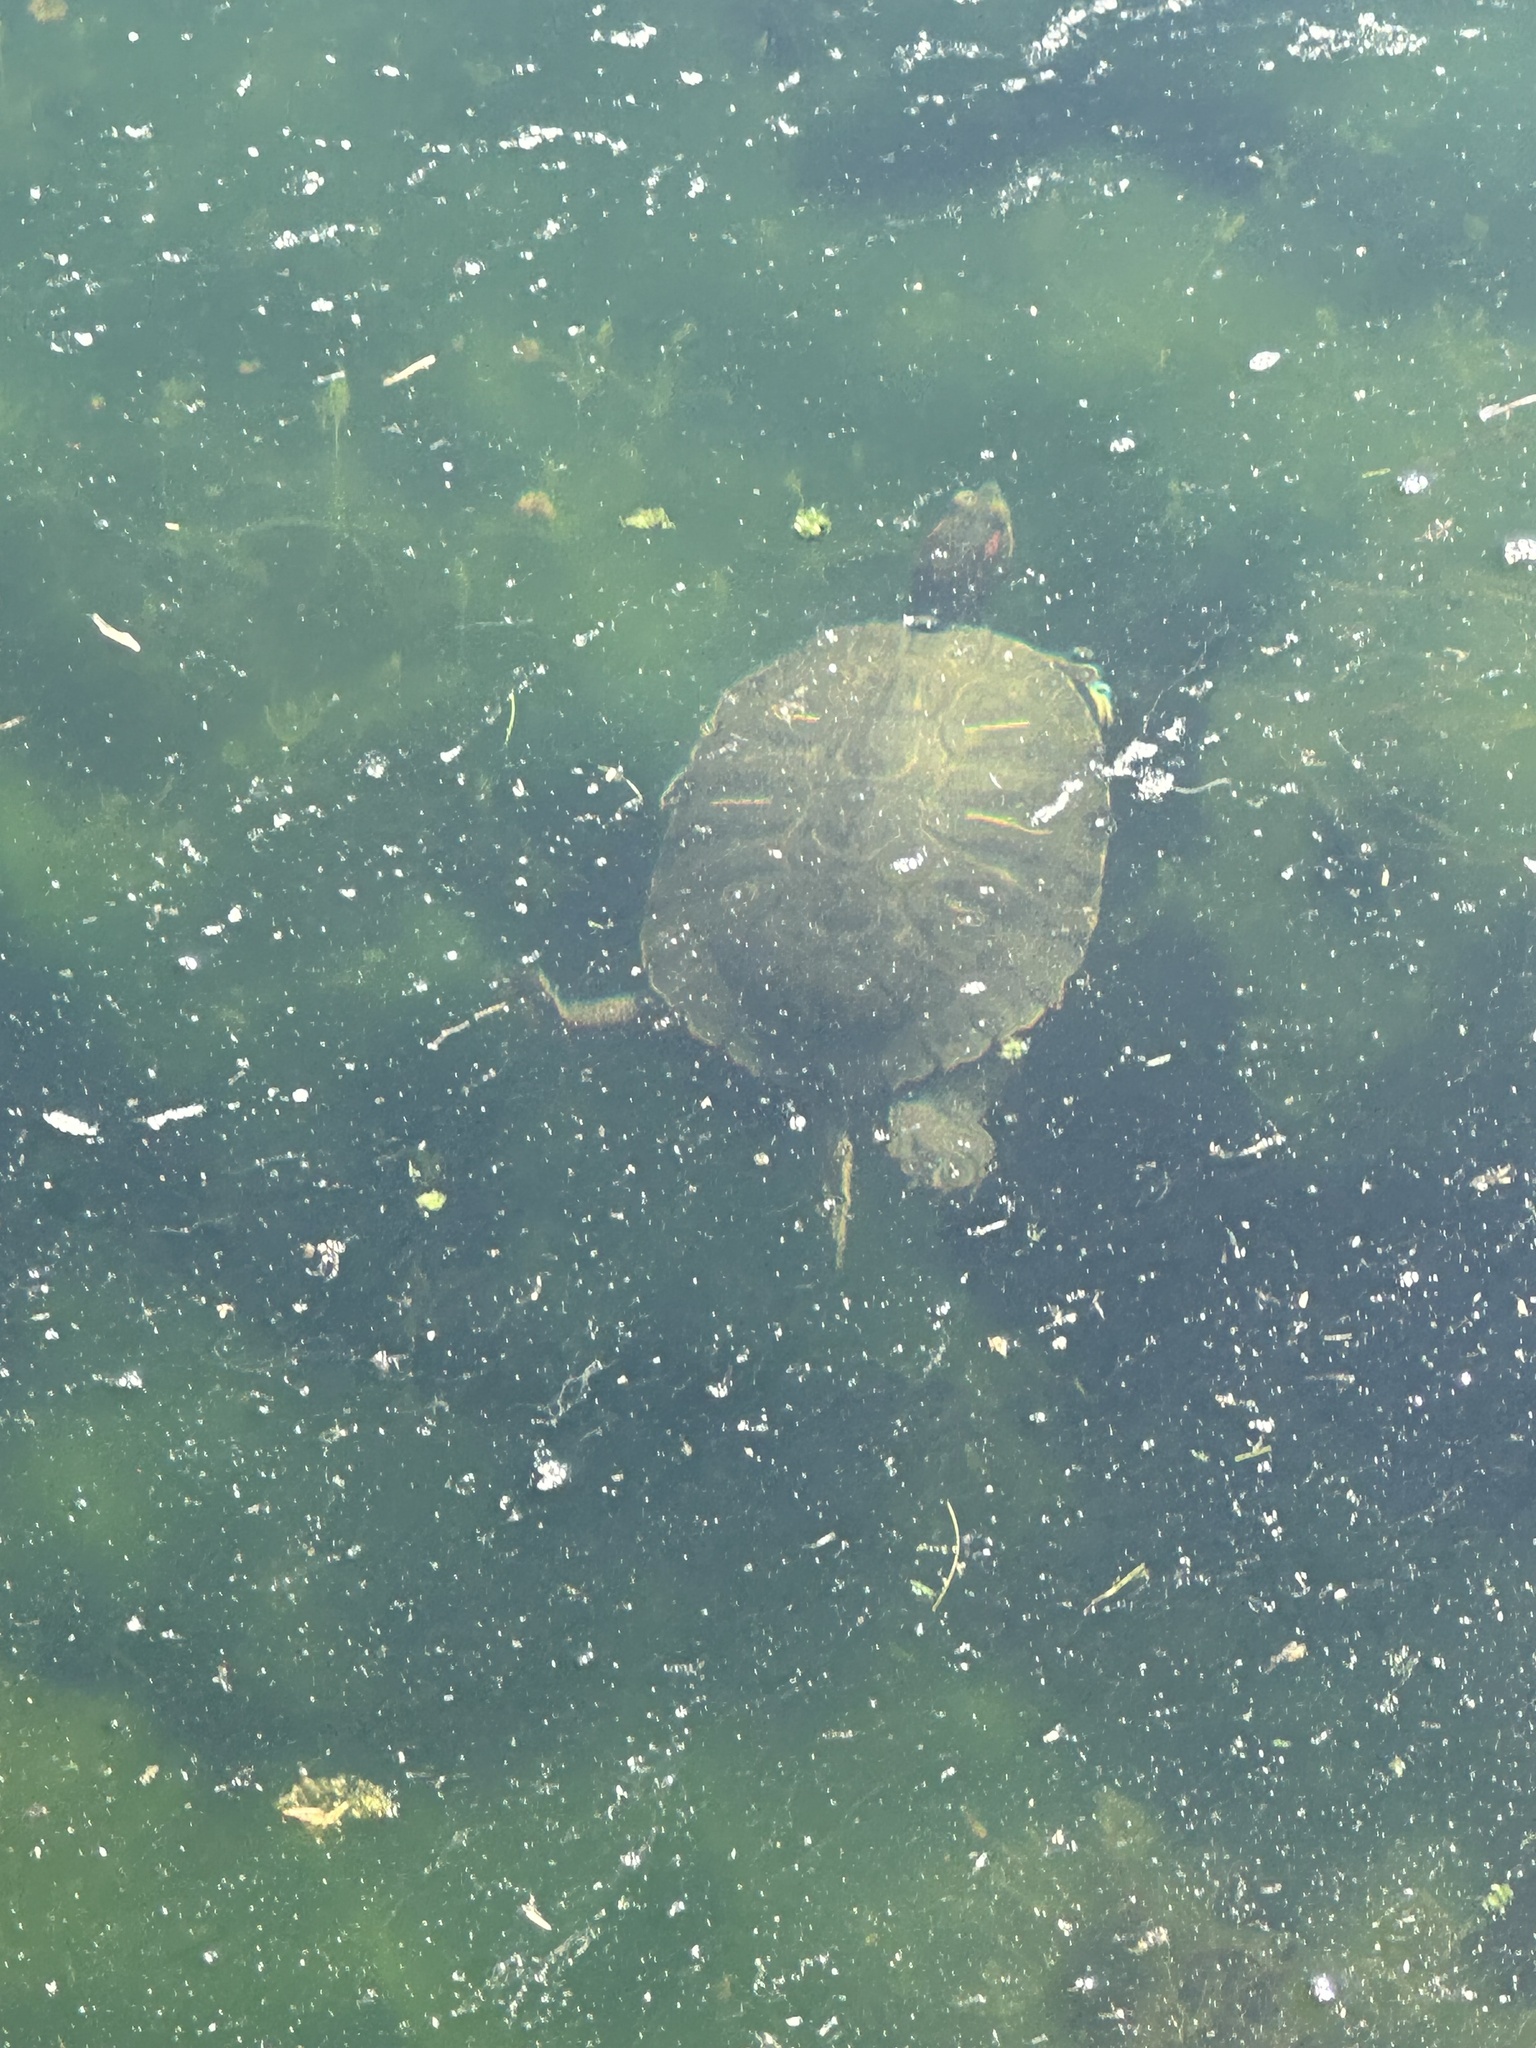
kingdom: Animalia
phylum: Chordata
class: Testudines
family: Emydidae
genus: Trachemys
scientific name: Trachemys scripta
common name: Slider
